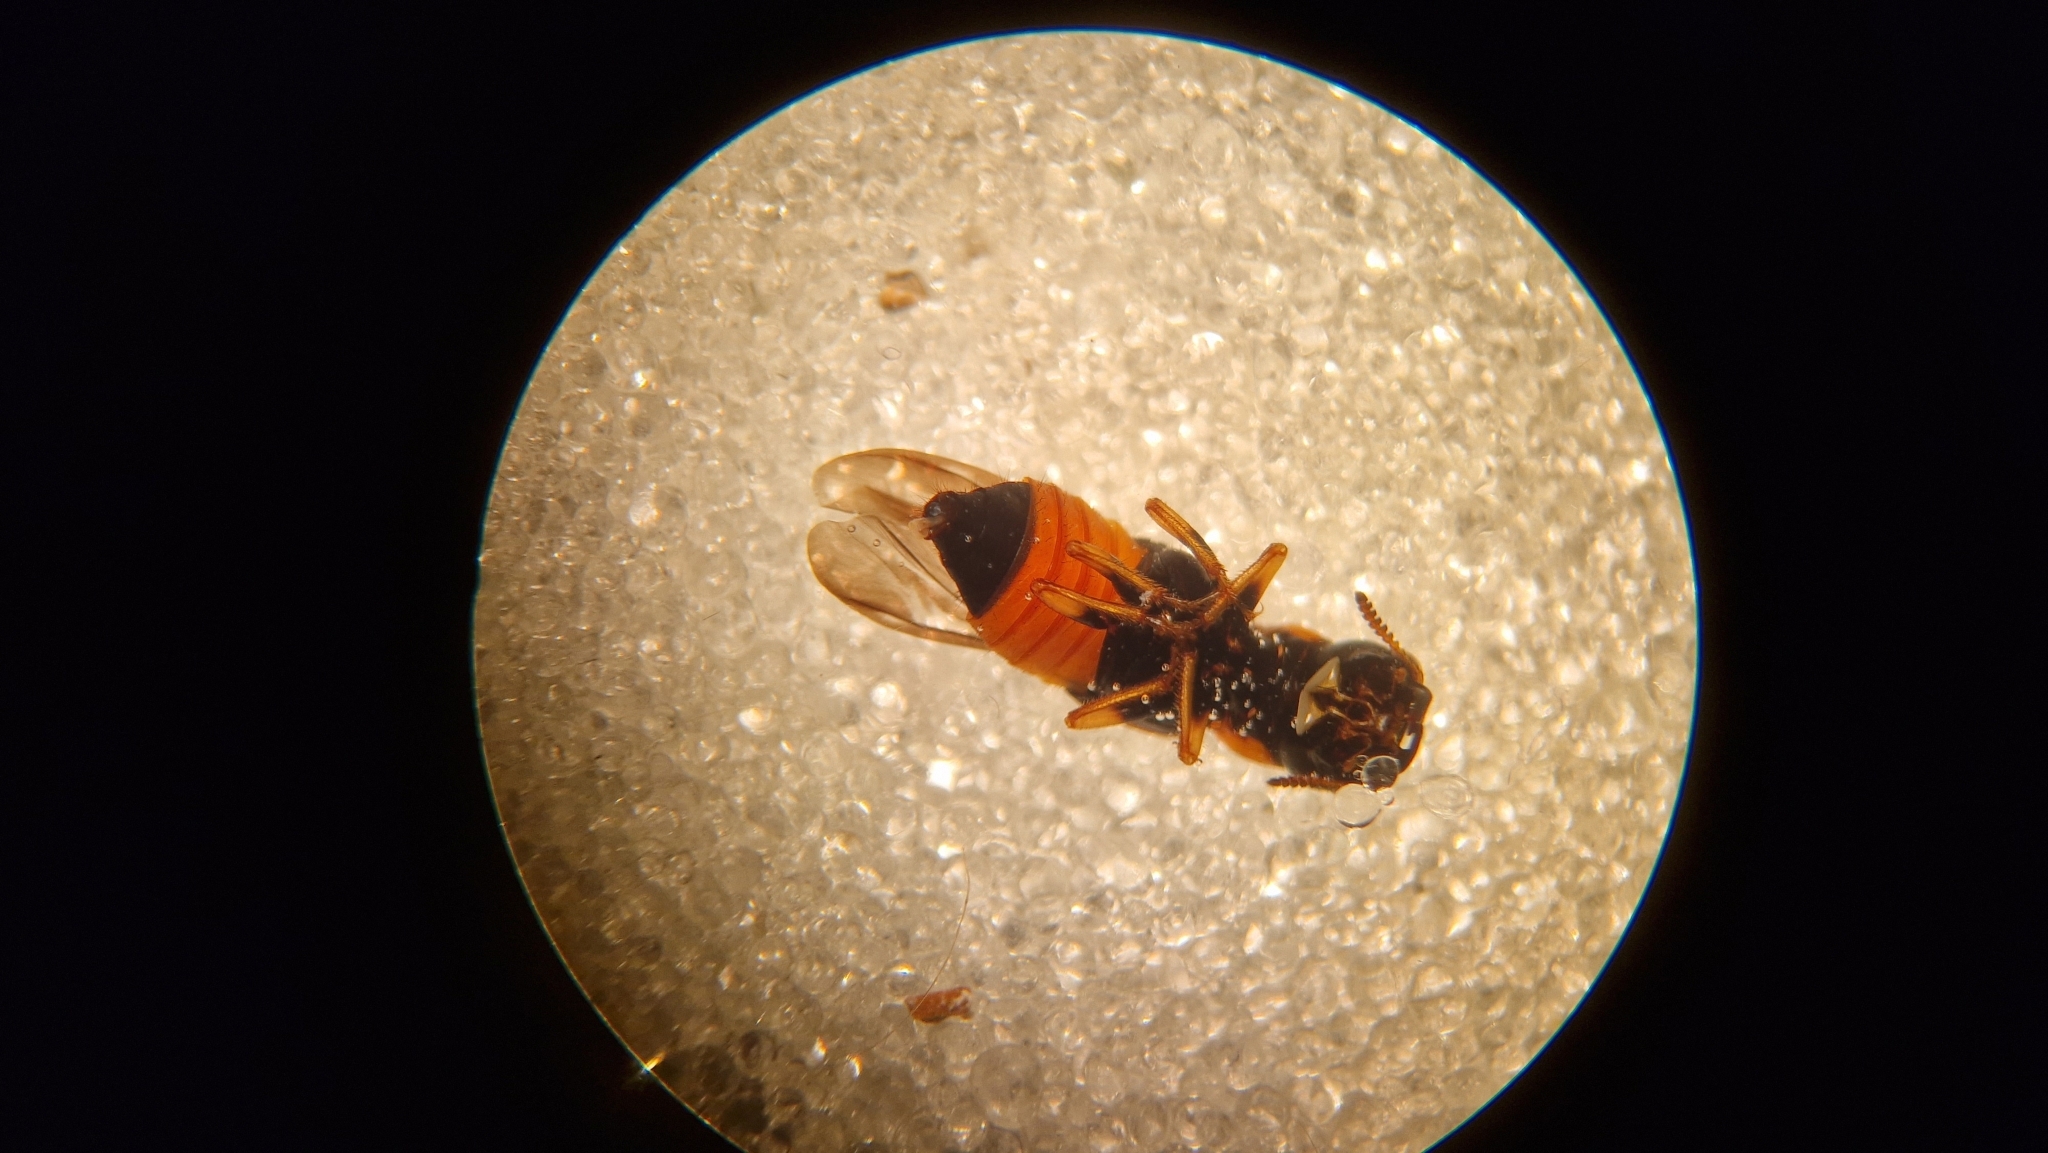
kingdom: Animalia
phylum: Arthropoda
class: Insecta
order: Coleoptera
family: Staphylinidae
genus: Oxyporus
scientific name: Oxyporus rufus
